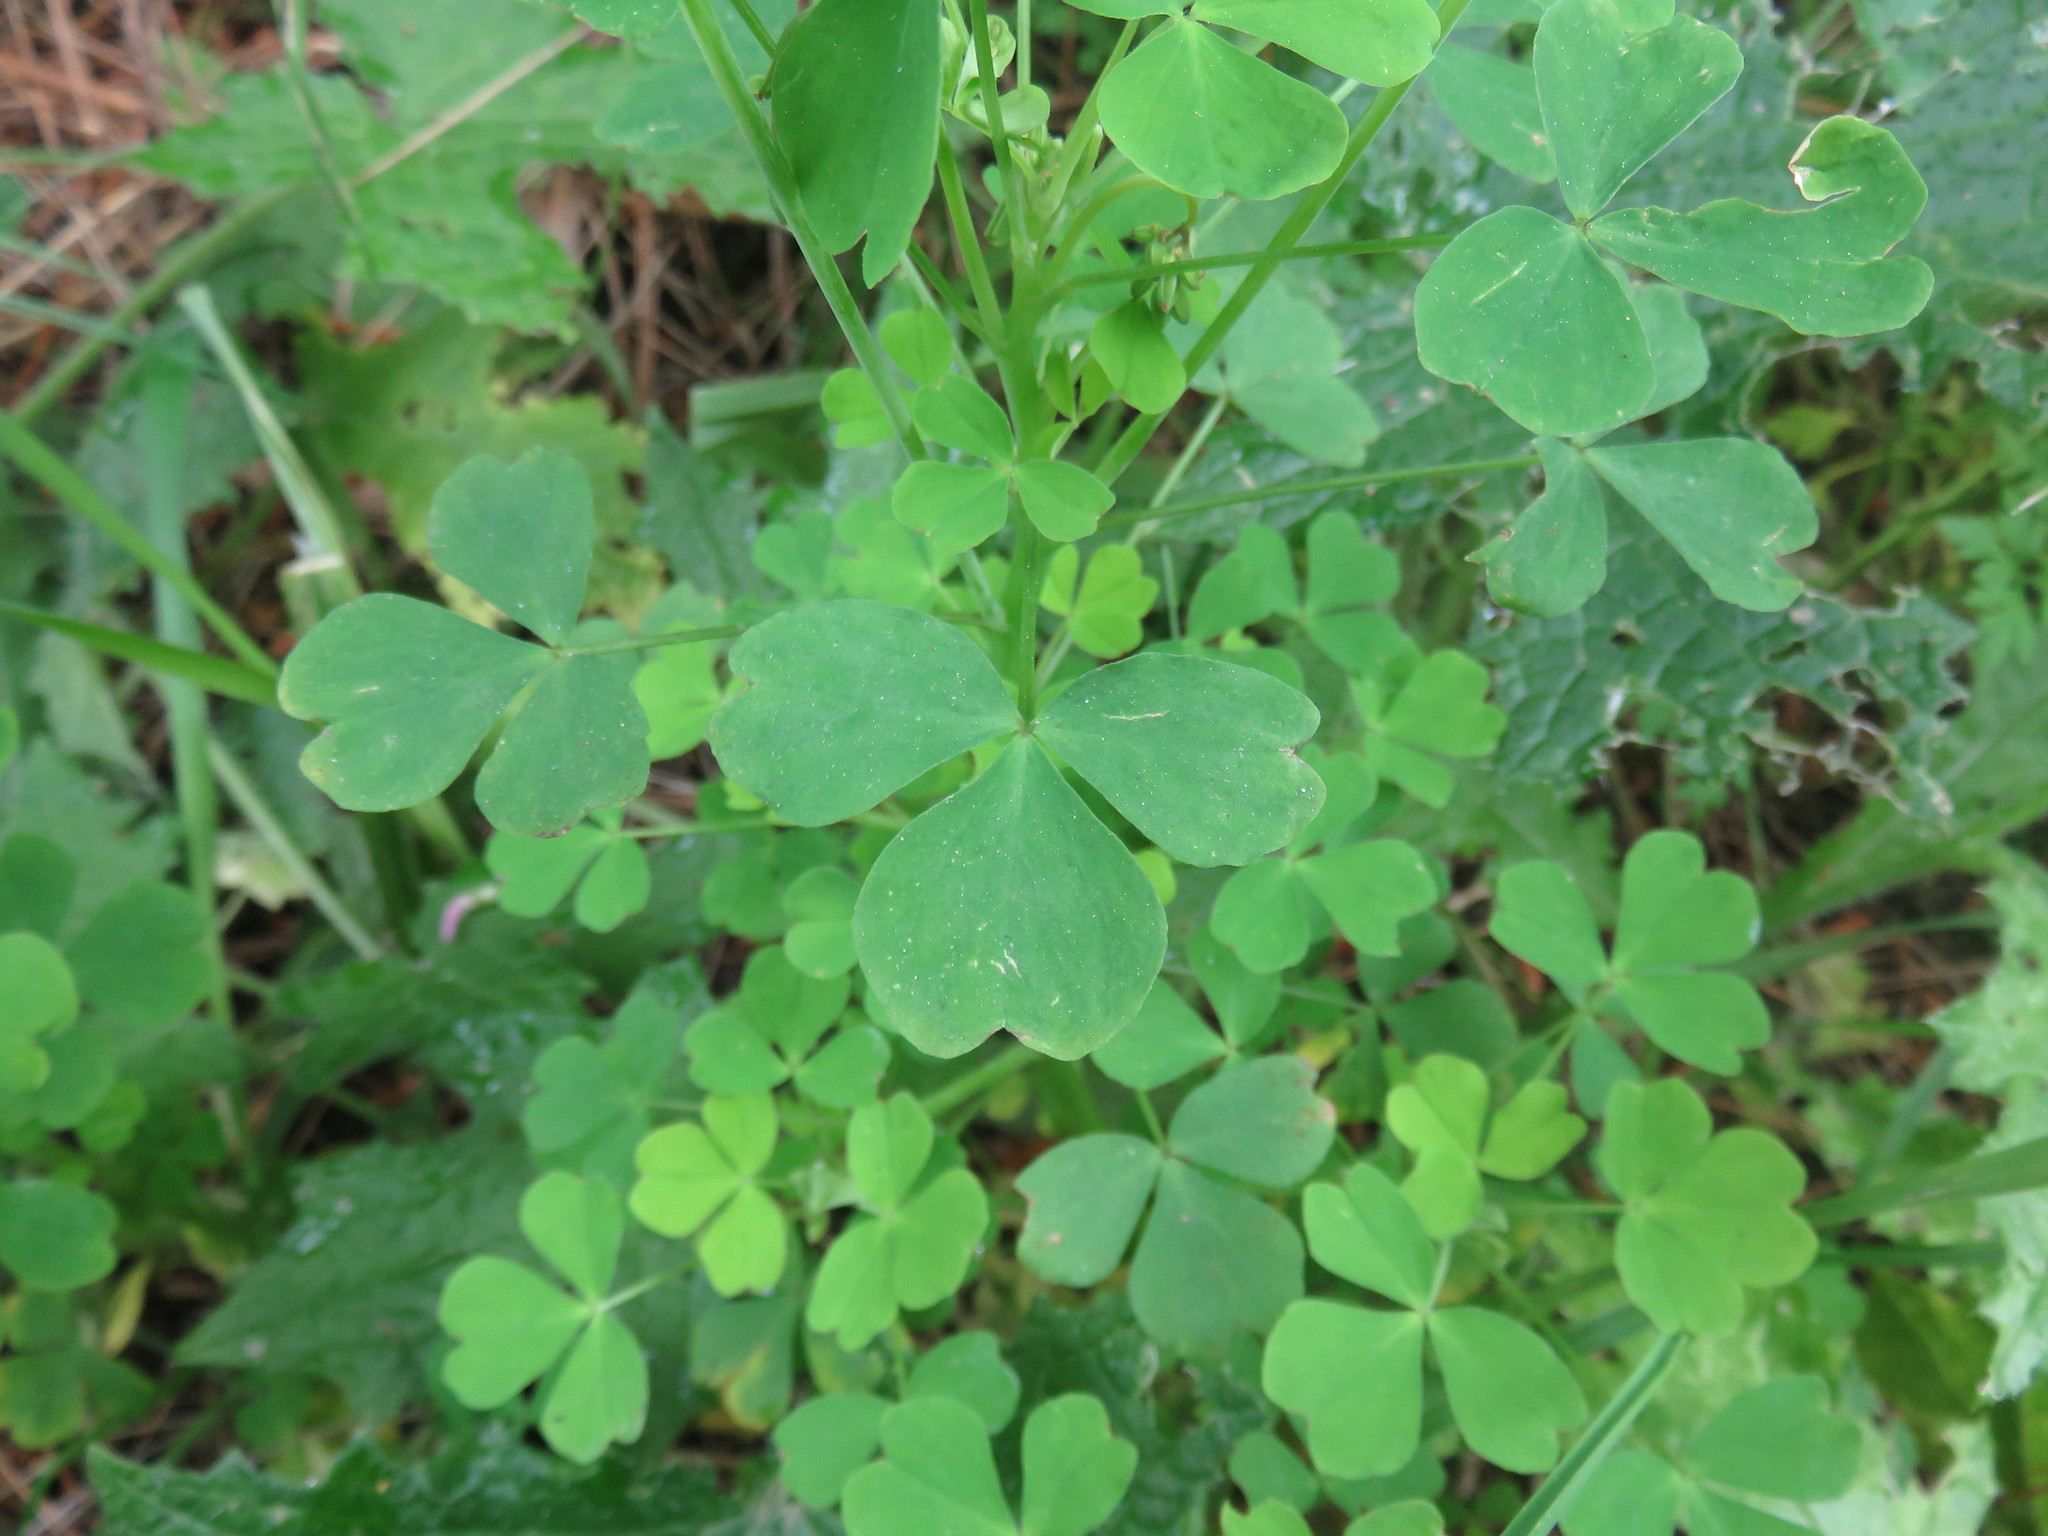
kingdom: Plantae
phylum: Tracheophyta
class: Magnoliopsida
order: Oxalidales
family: Oxalidaceae
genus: Oxalis
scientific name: Oxalis rosea
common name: Annual pink-sorrel
